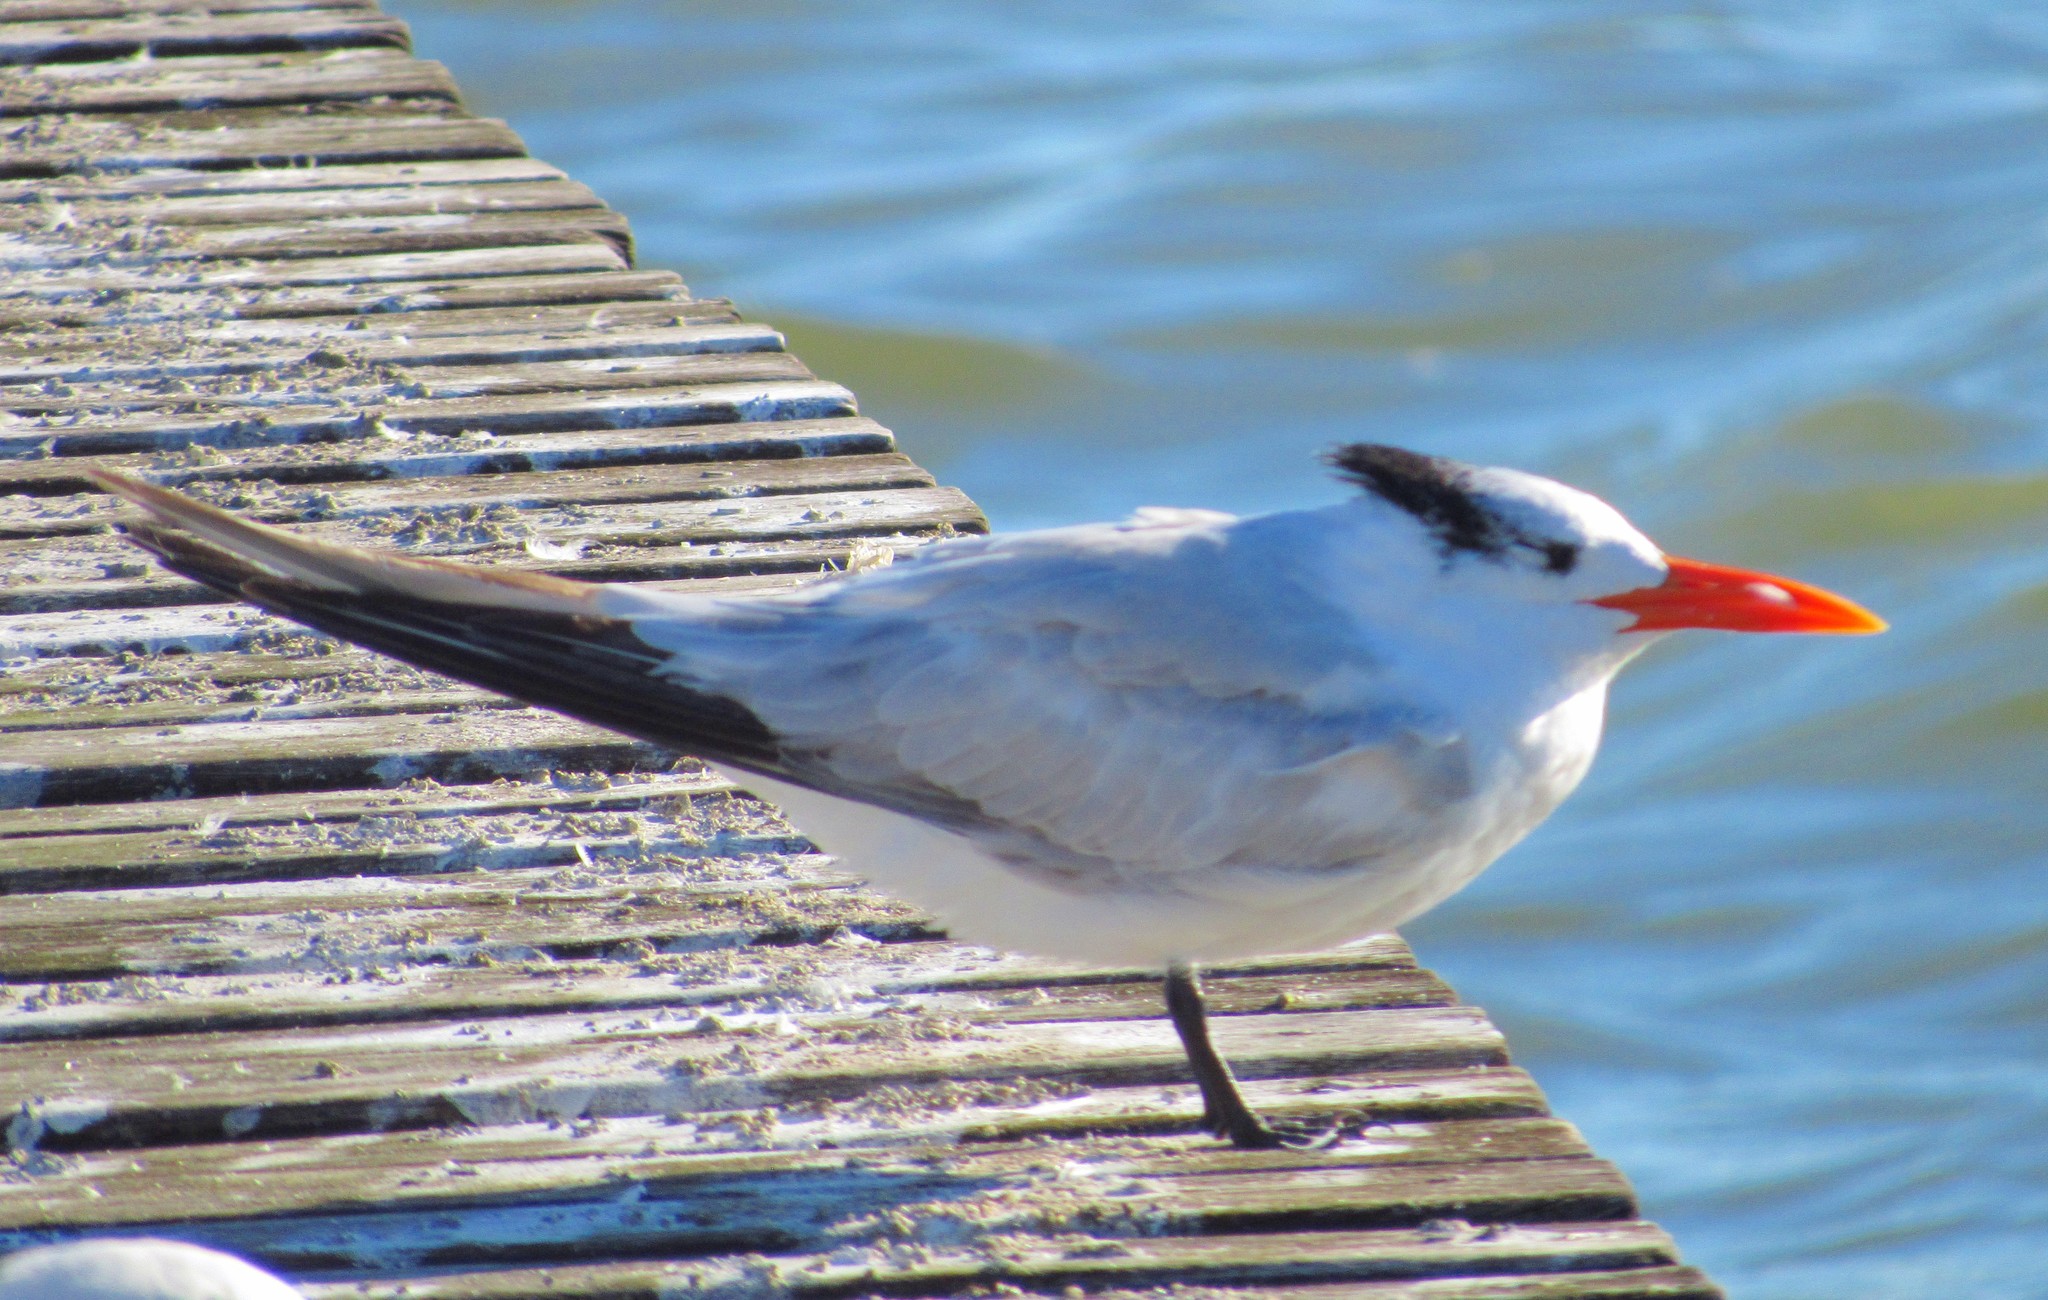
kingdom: Animalia
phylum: Chordata
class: Aves
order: Charadriiformes
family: Laridae
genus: Thalasseus
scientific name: Thalasseus maximus
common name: Royal tern
